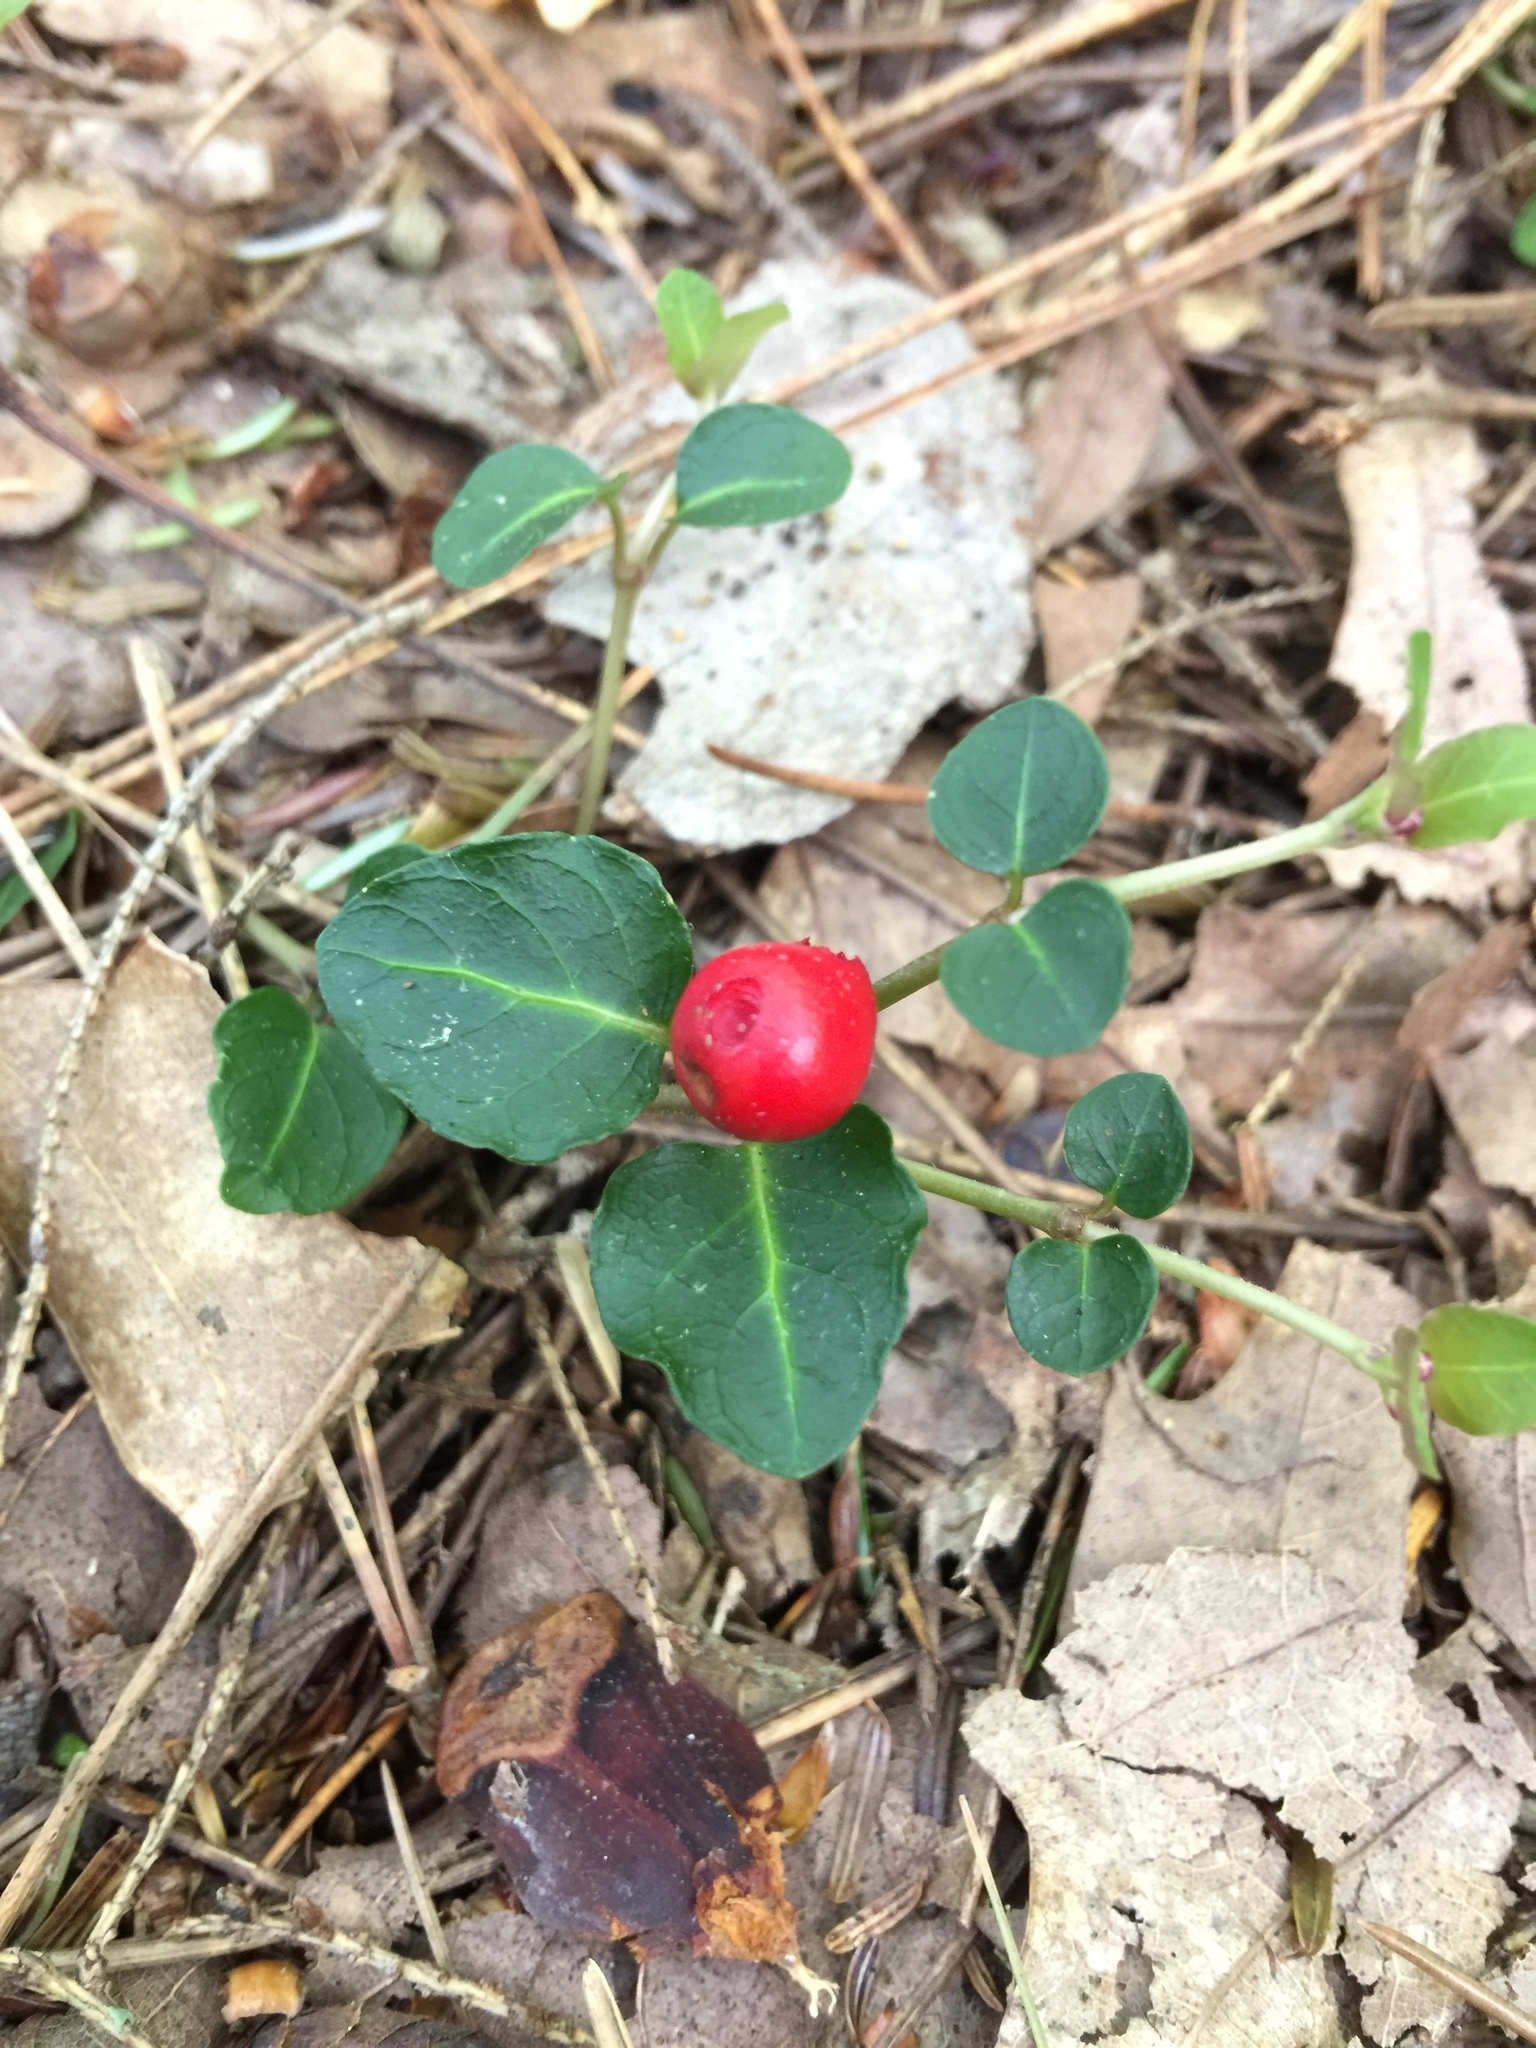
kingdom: Plantae
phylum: Tracheophyta
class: Magnoliopsida
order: Gentianales
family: Rubiaceae
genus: Mitchella
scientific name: Mitchella repens
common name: Partridge-berry
